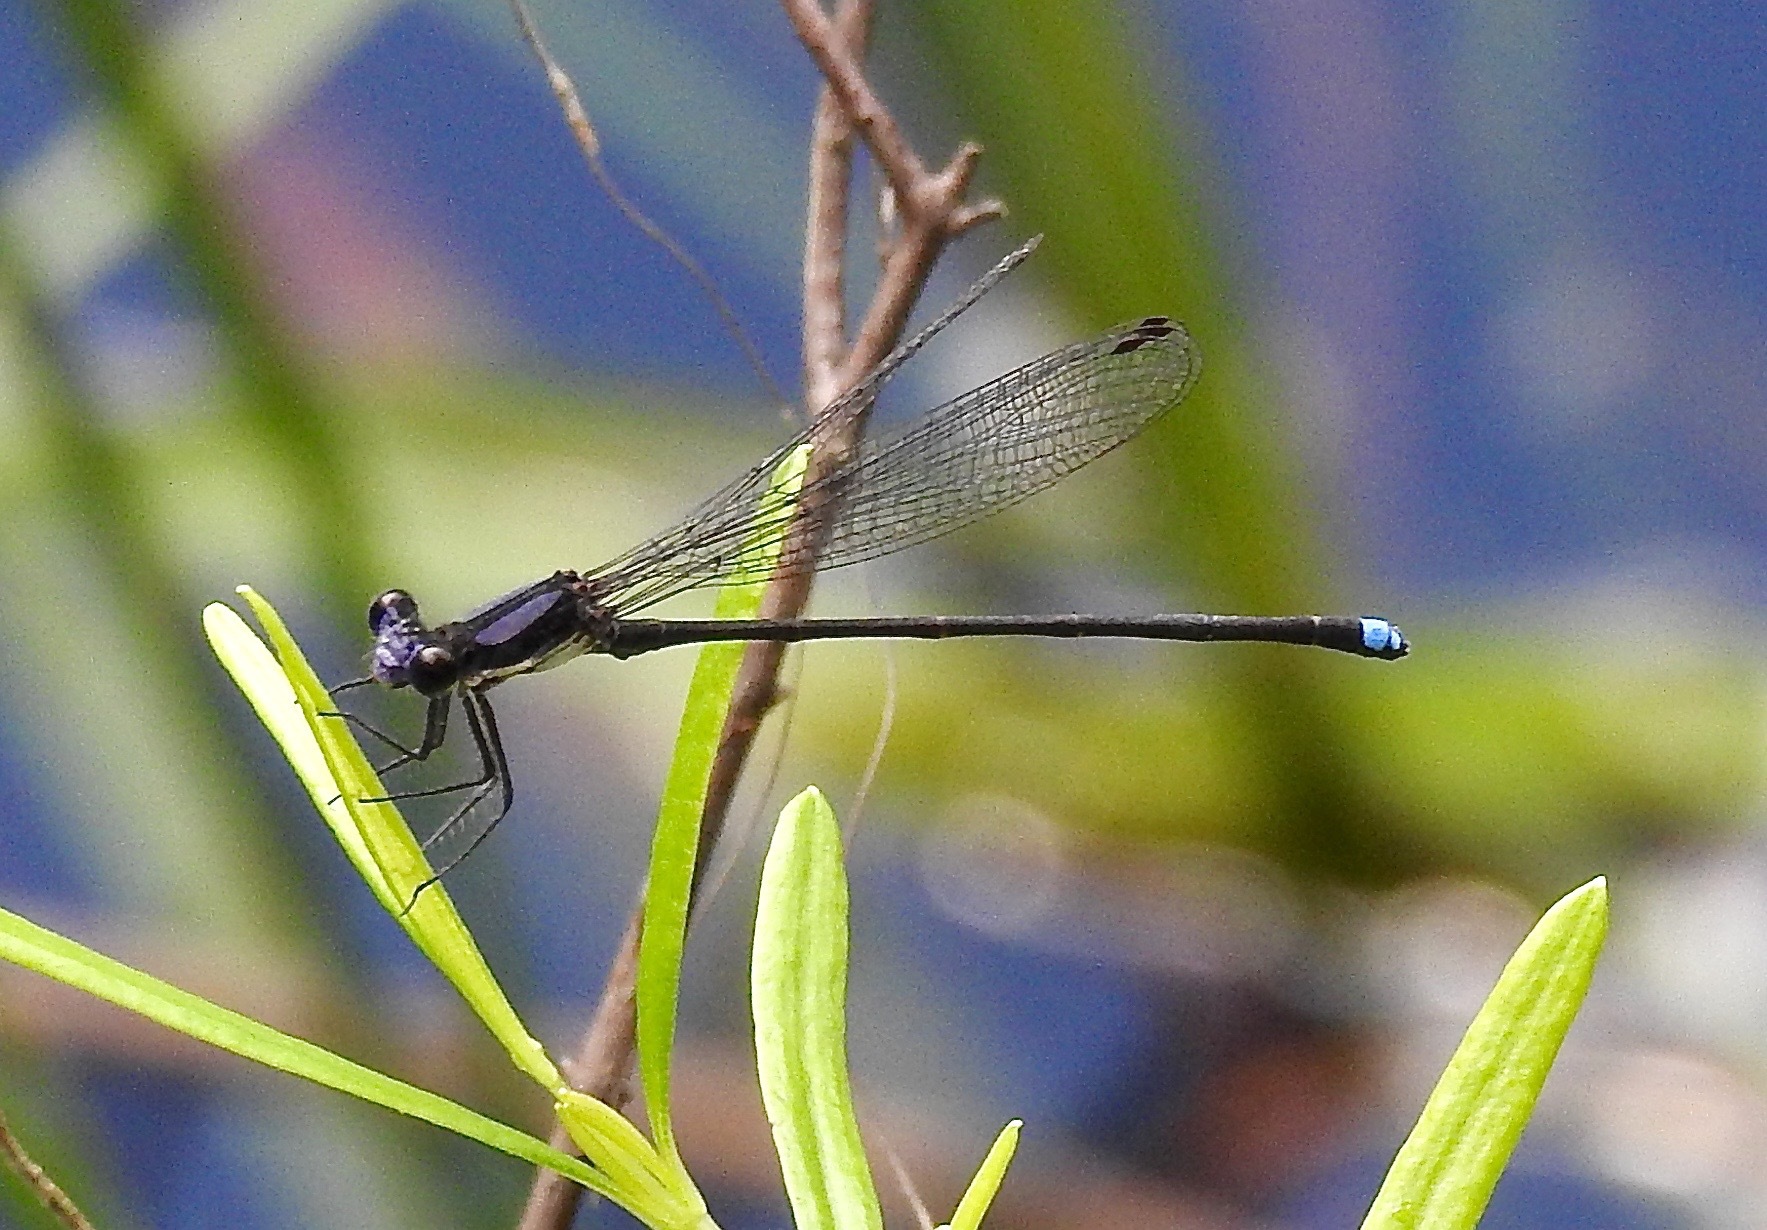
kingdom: Animalia
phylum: Arthropoda
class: Insecta
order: Odonata
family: Coenagrionidae
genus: Argia
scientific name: Argia tibialis
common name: Blue-tipped dancer
